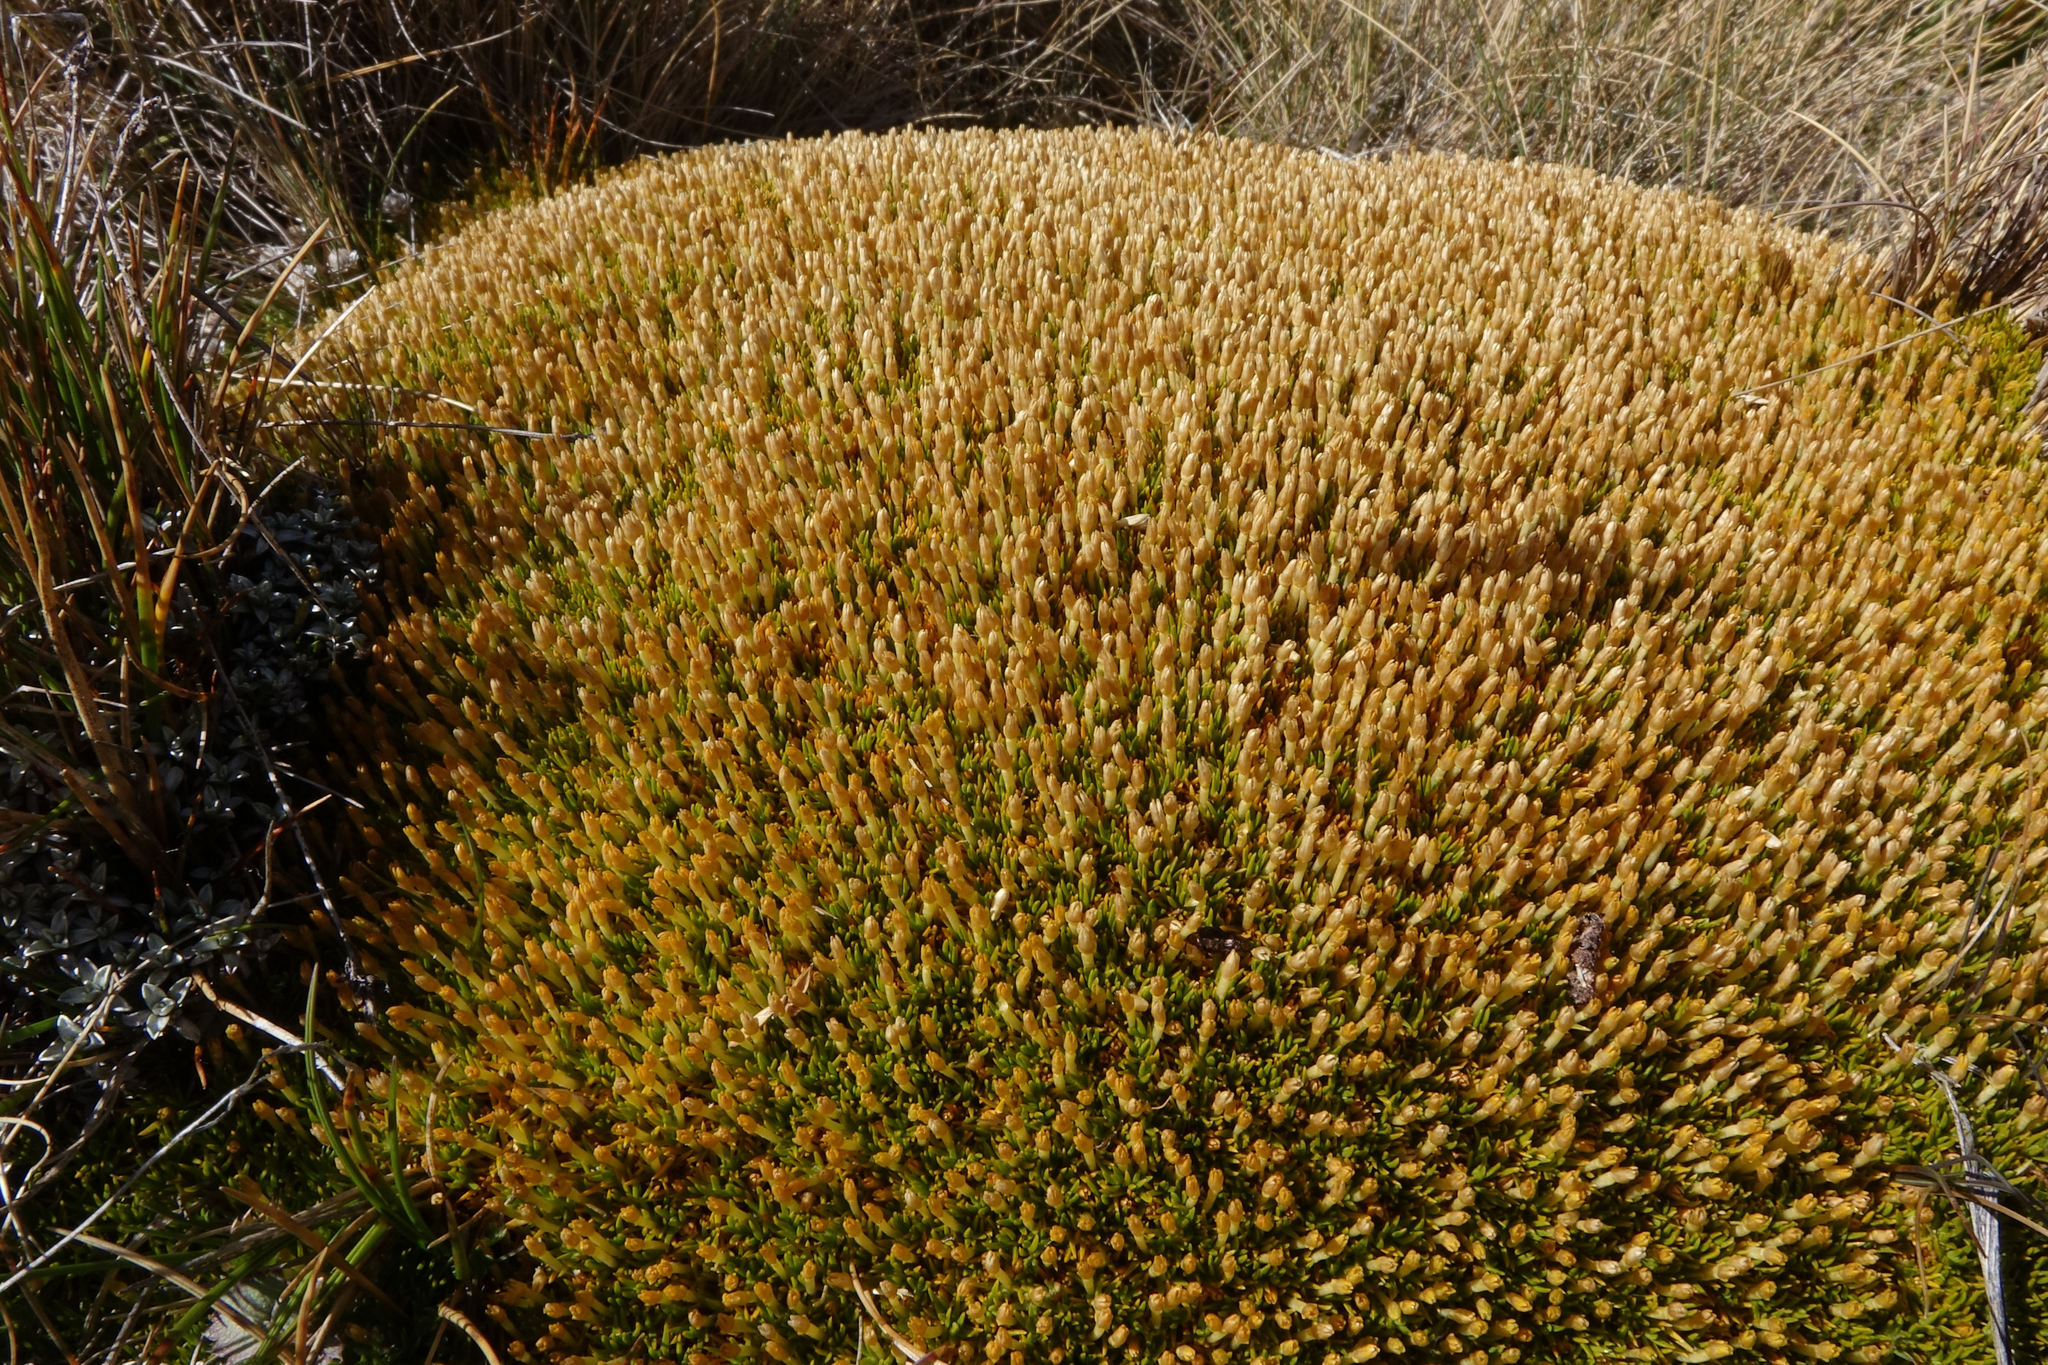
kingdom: Plantae
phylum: Tracheophyta
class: Magnoliopsida
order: Caryophyllales
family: Caryophyllaceae
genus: Scleranthus
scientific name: Scleranthus uniflorus
